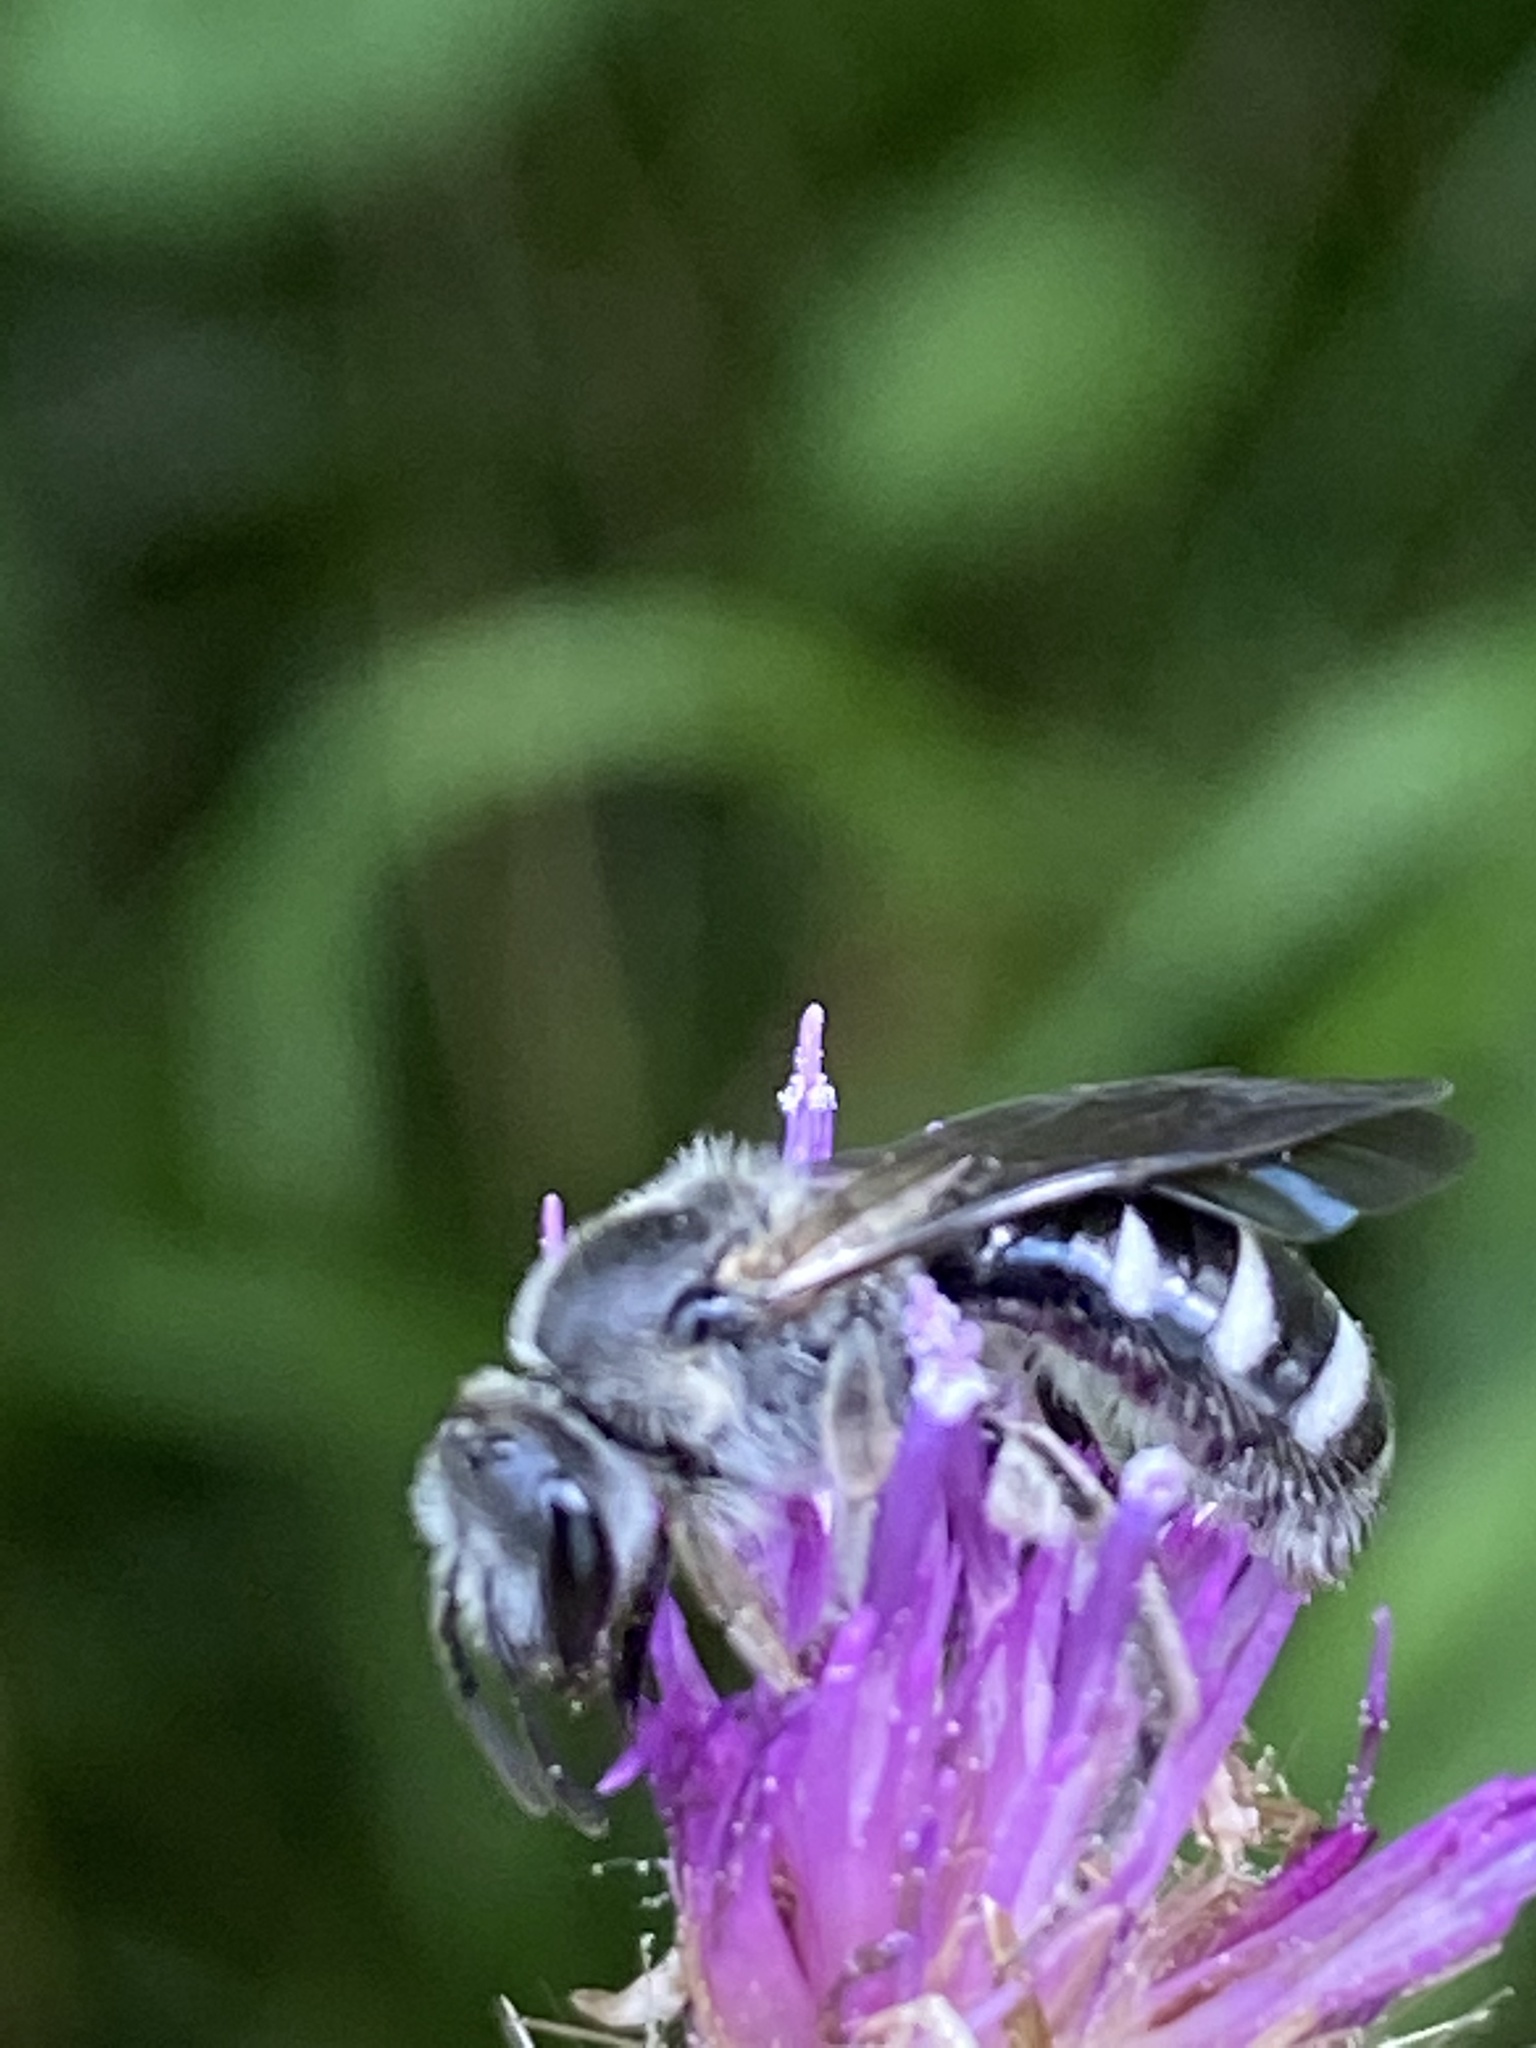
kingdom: Animalia
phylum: Arthropoda
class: Insecta
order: Hymenoptera
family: Halictidae
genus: Lasioglossum
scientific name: Lasioglossum sexnotatum
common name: Ashy furrow bee
